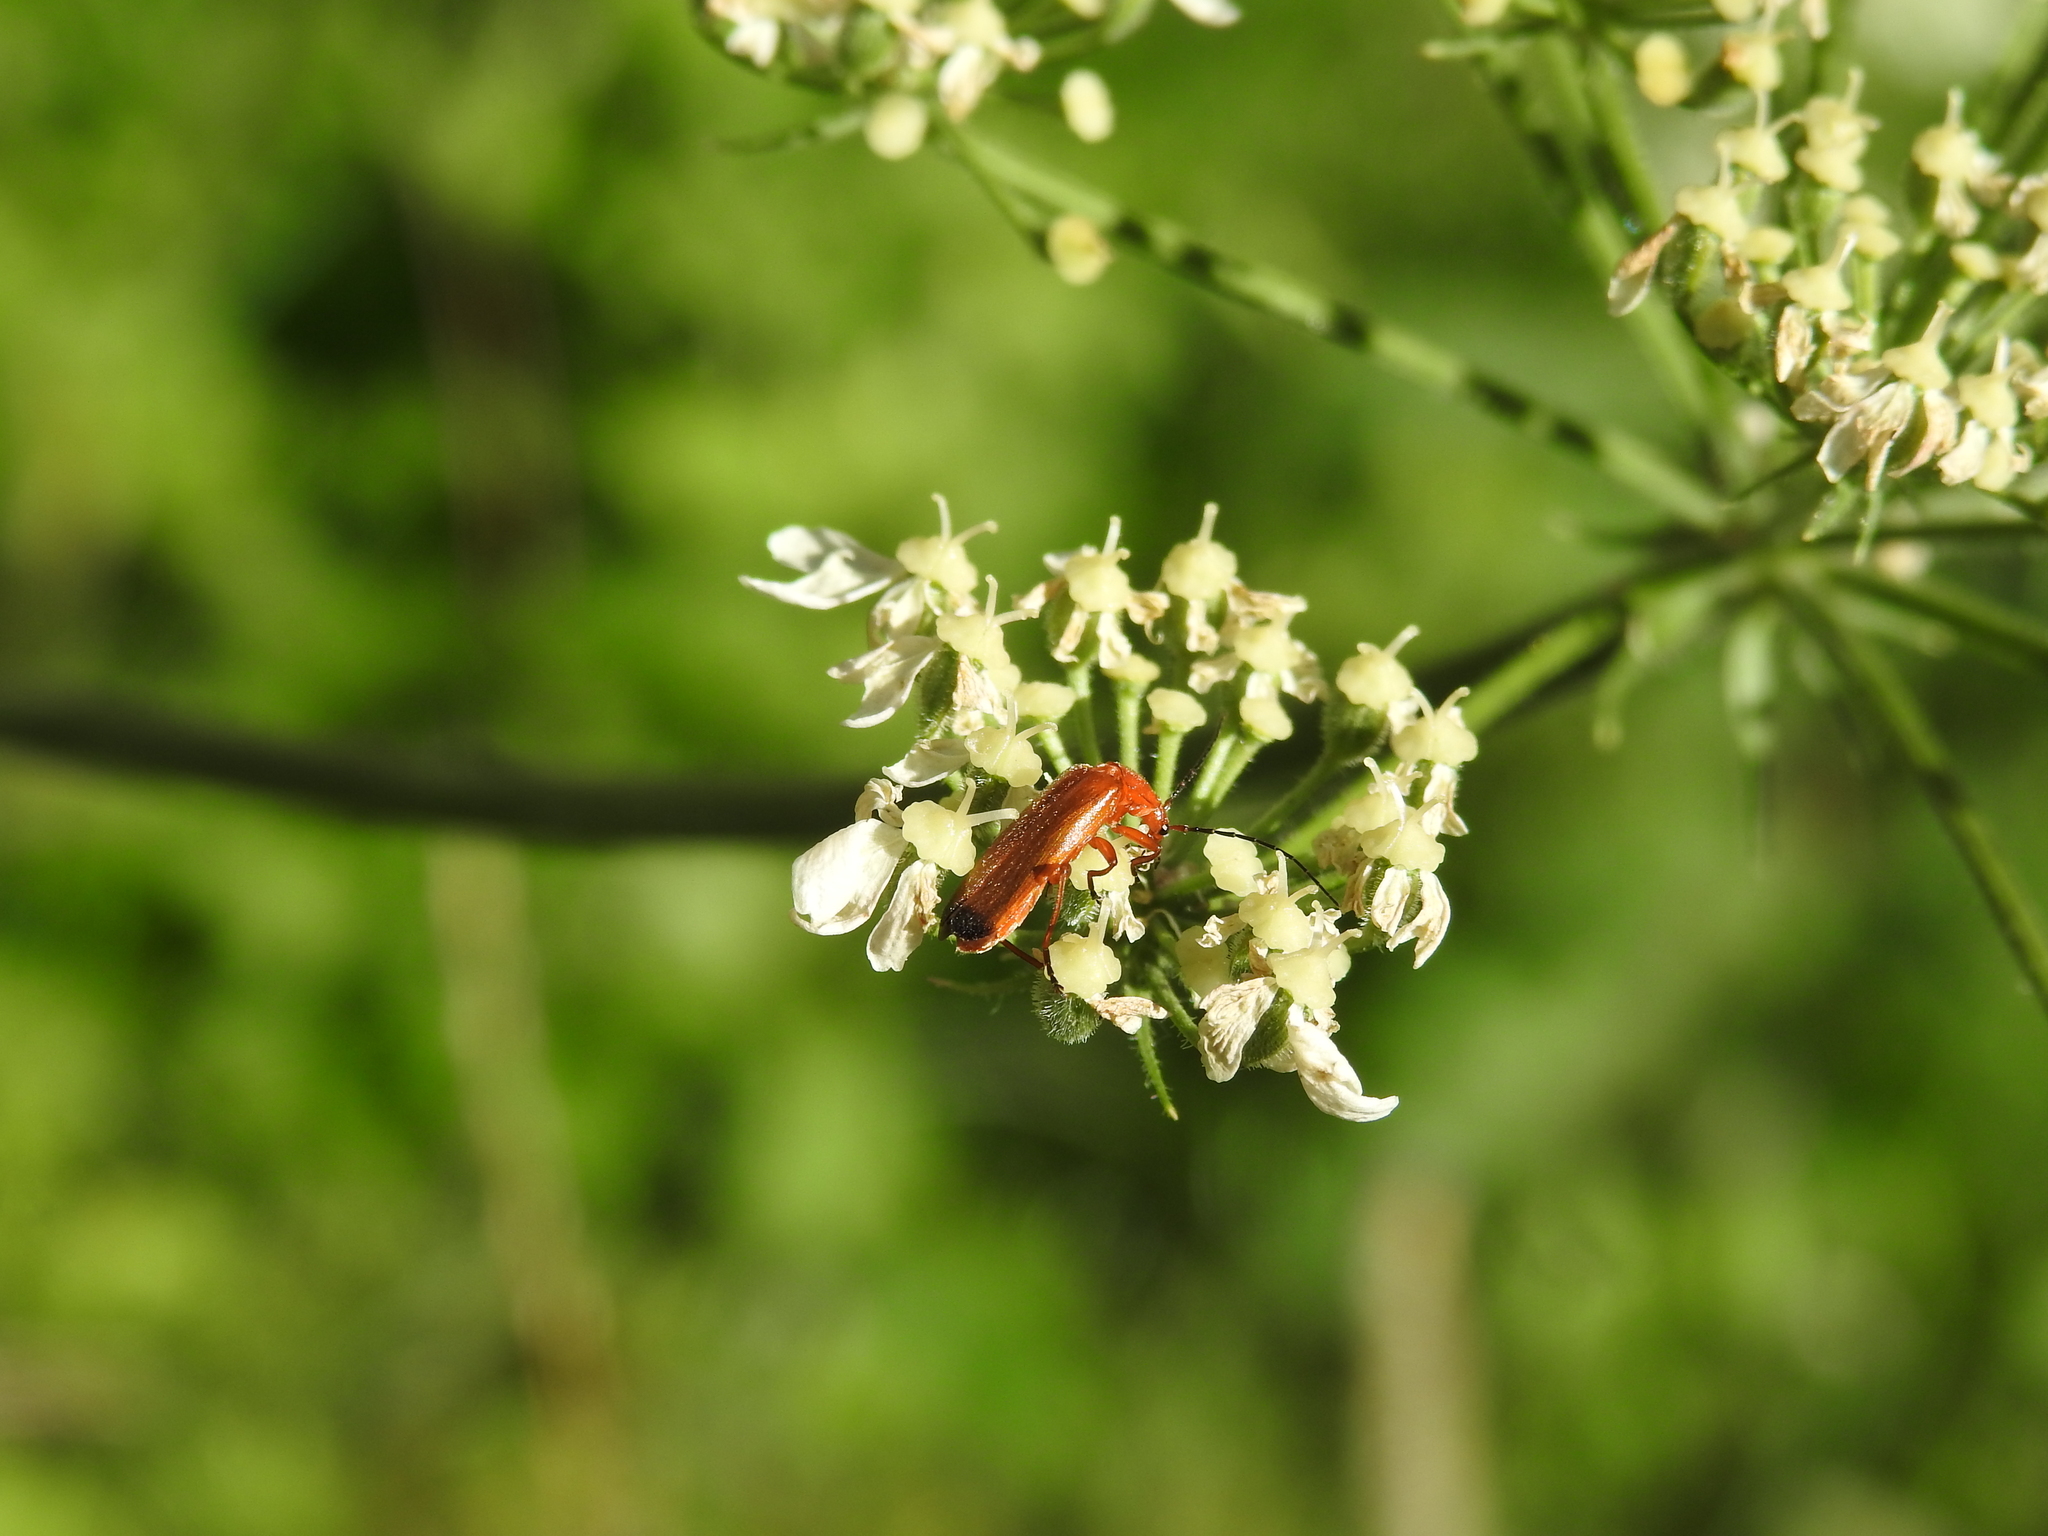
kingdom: Animalia
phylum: Arthropoda
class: Insecta
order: Coleoptera
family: Cantharidae
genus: Rhagonycha
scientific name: Rhagonycha fulva
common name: Common red soldier beetle
